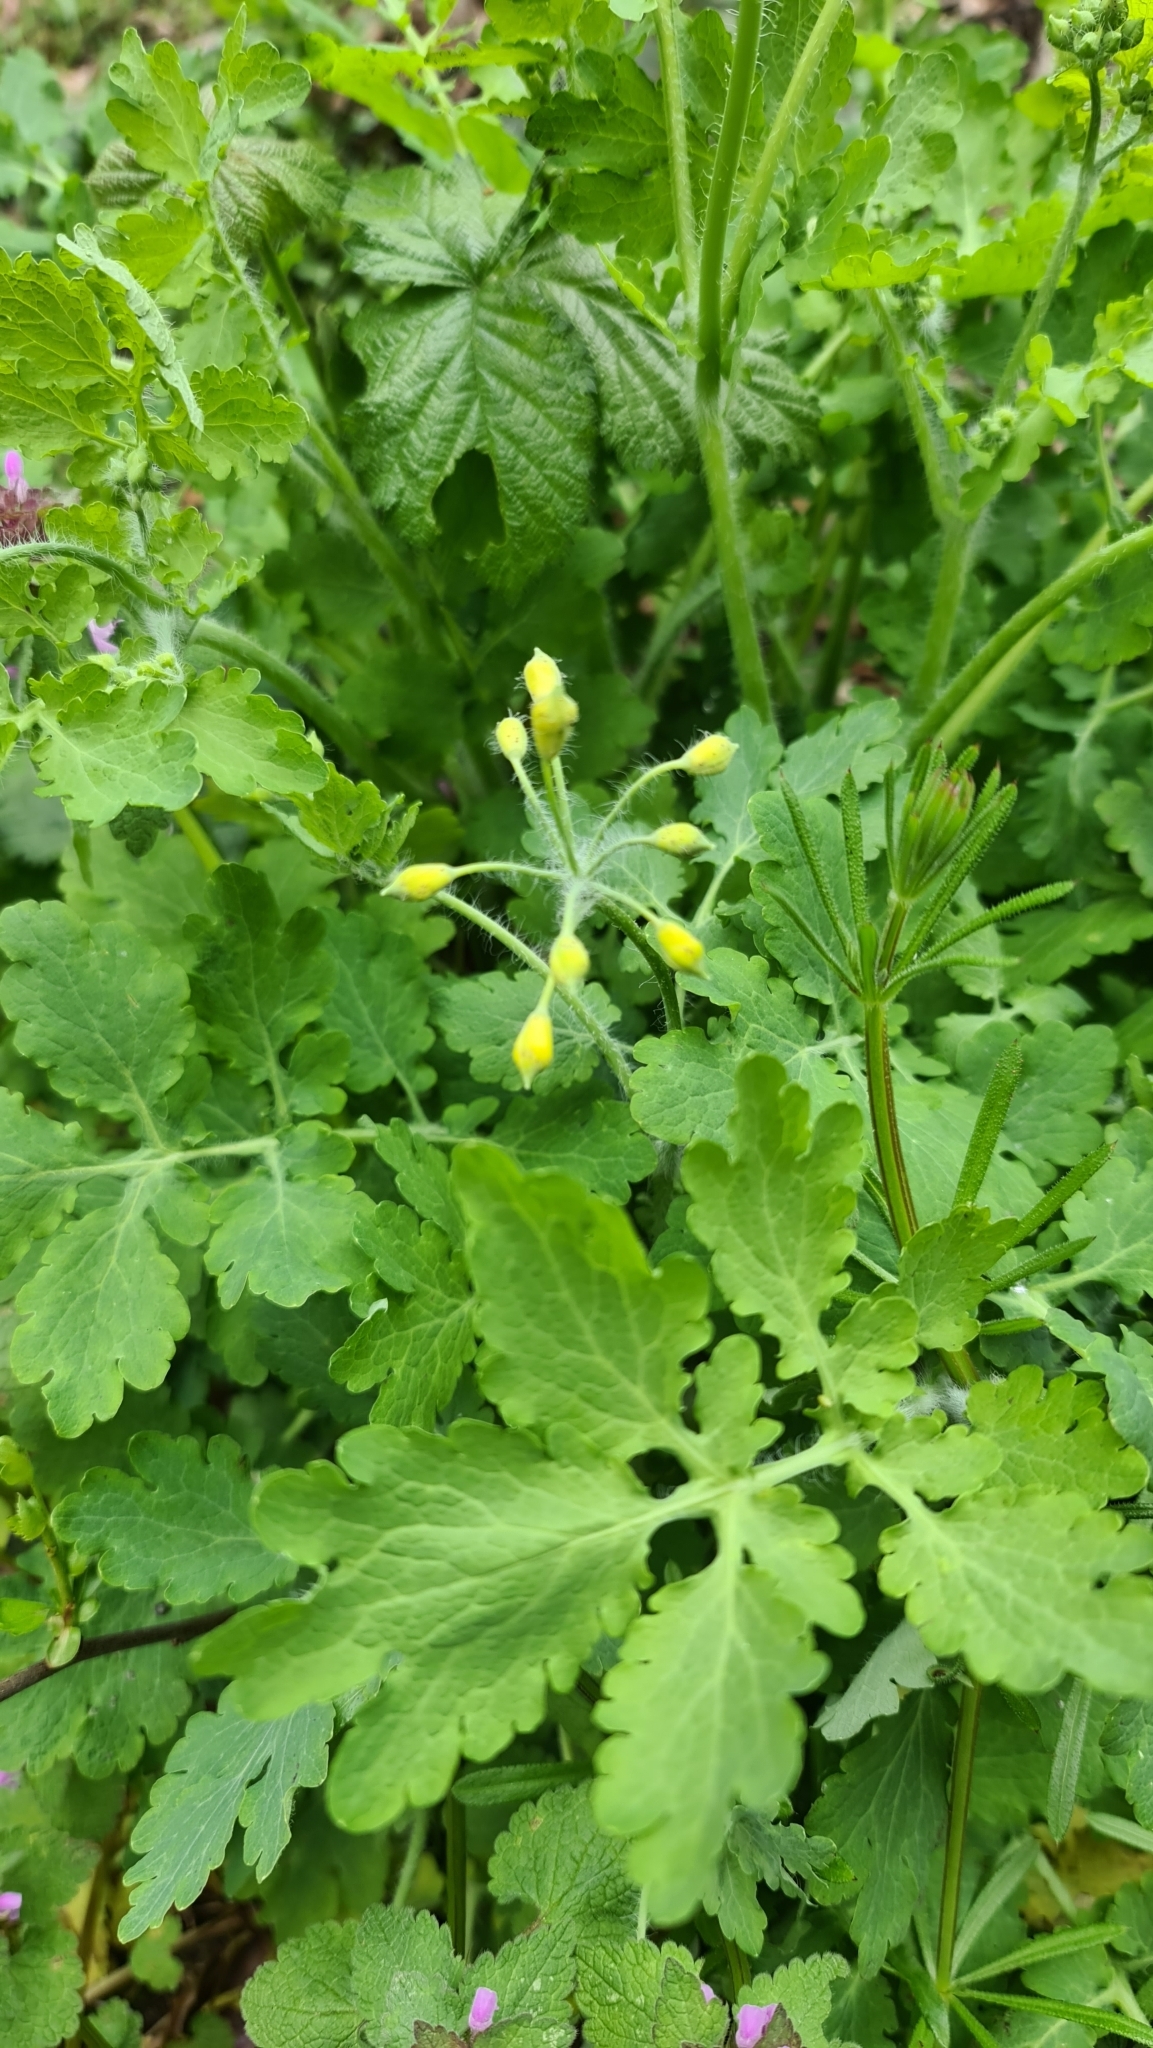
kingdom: Plantae
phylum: Tracheophyta
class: Magnoliopsida
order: Ranunculales
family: Papaveraceae
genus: Chelidonium
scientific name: Chelidonium majus
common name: Greater celandine
